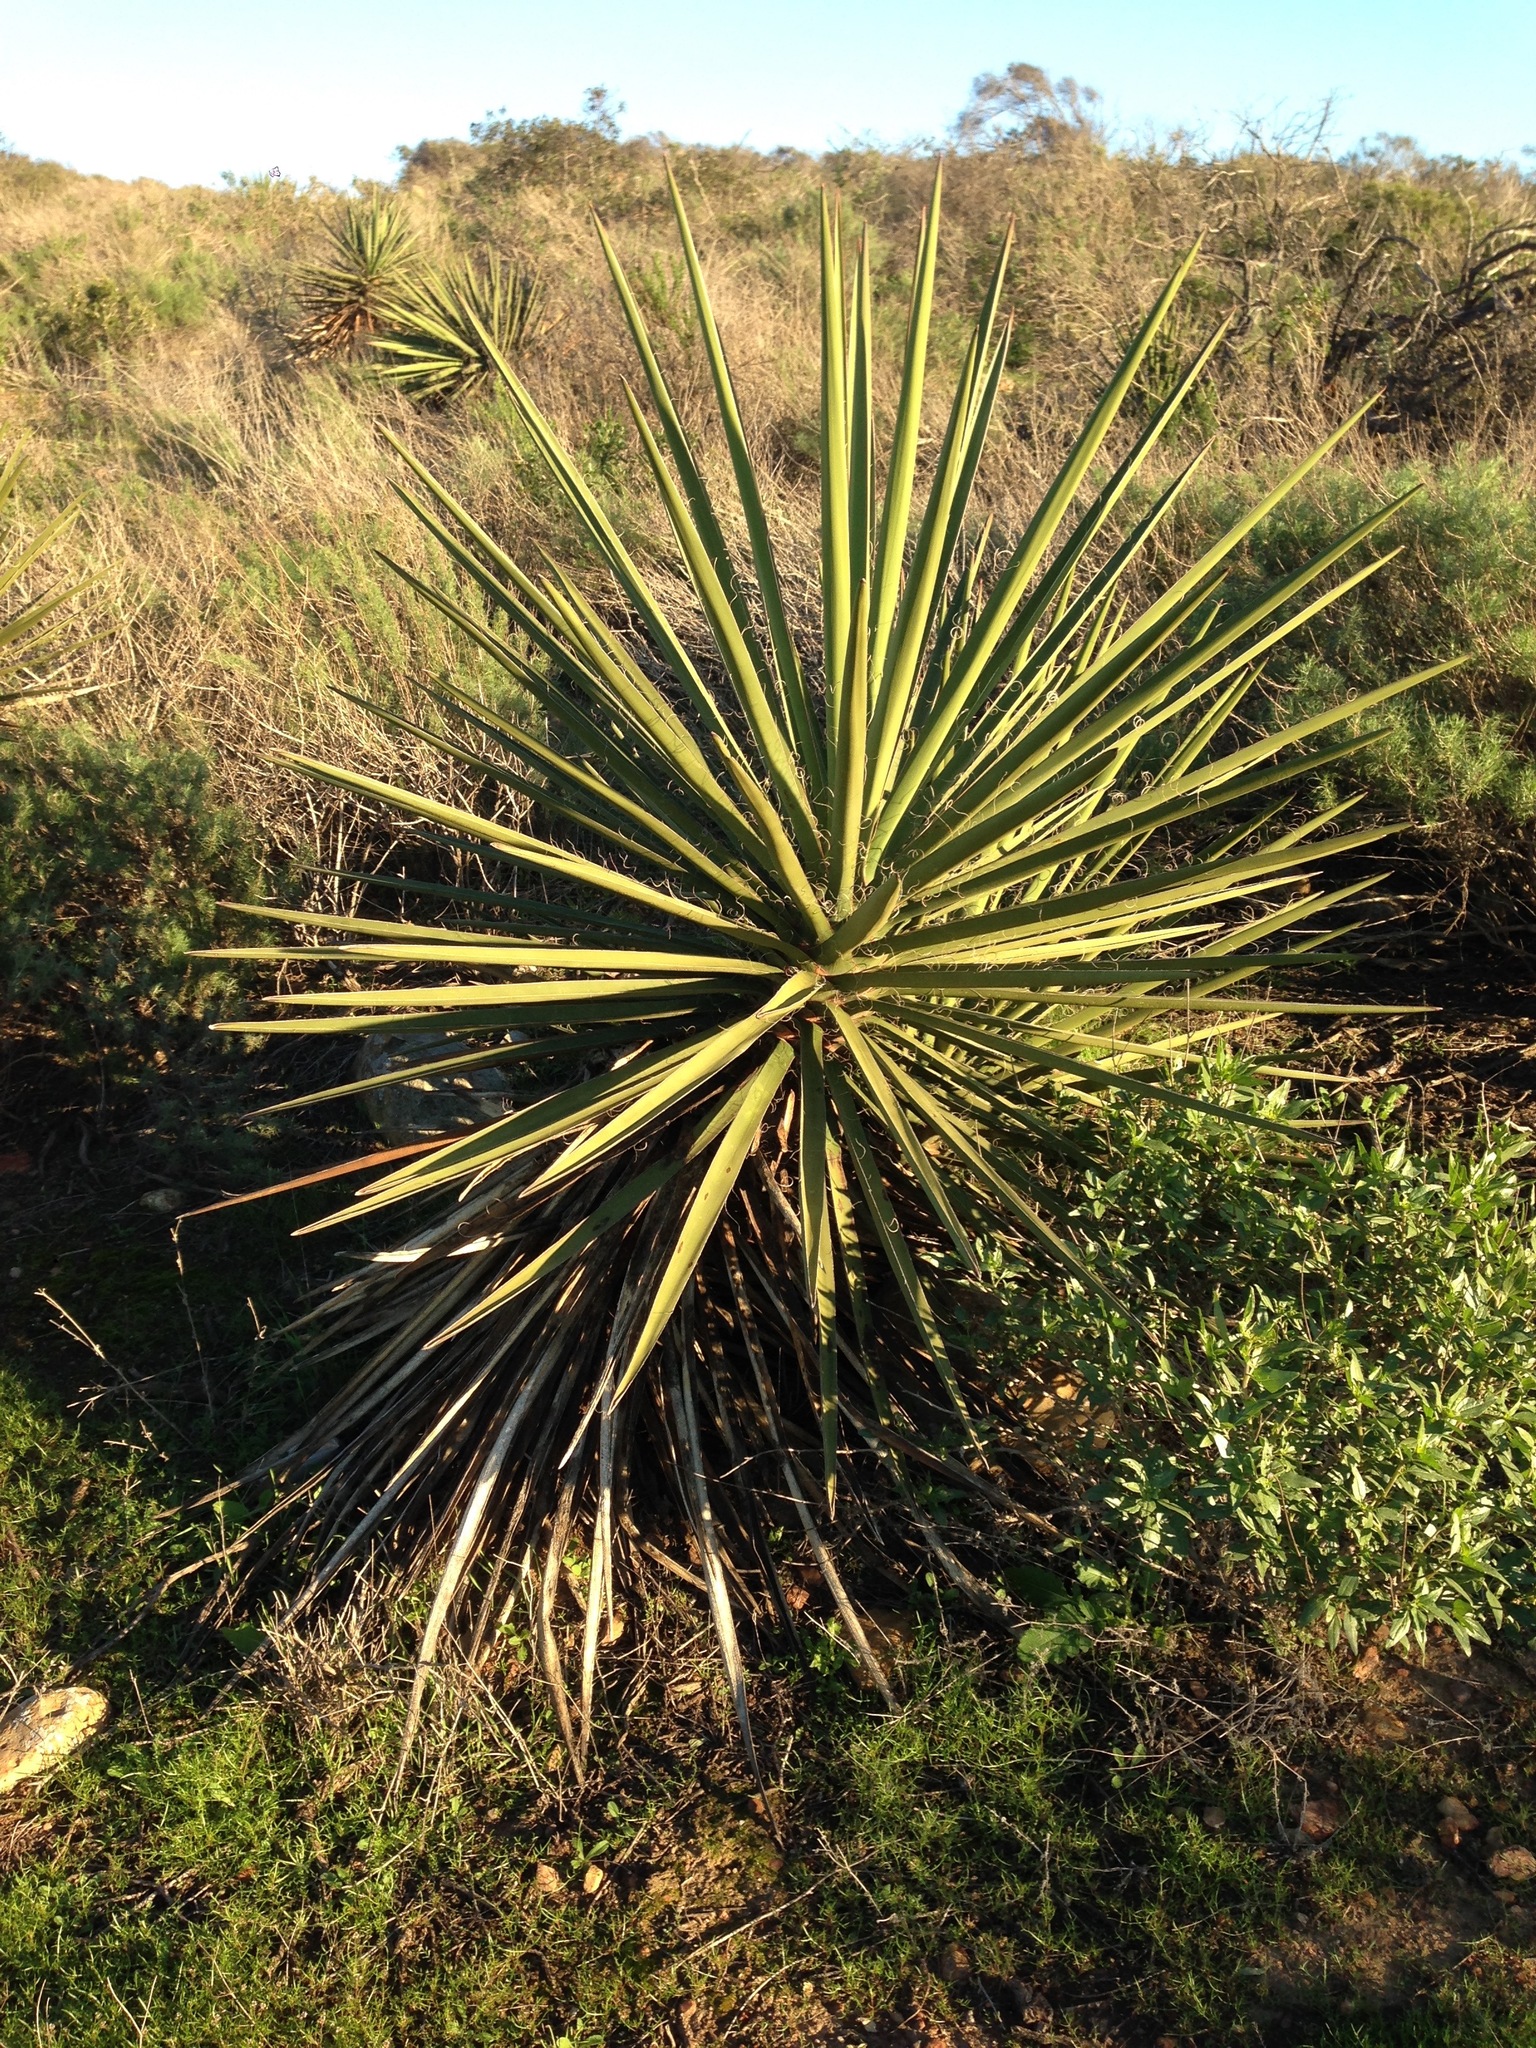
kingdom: Plantae
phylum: Tracheophyta
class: Liliopsida
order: Asparagales
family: Asparagaceae
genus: Yucca
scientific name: Yucca schidigera
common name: Mojave yucca
